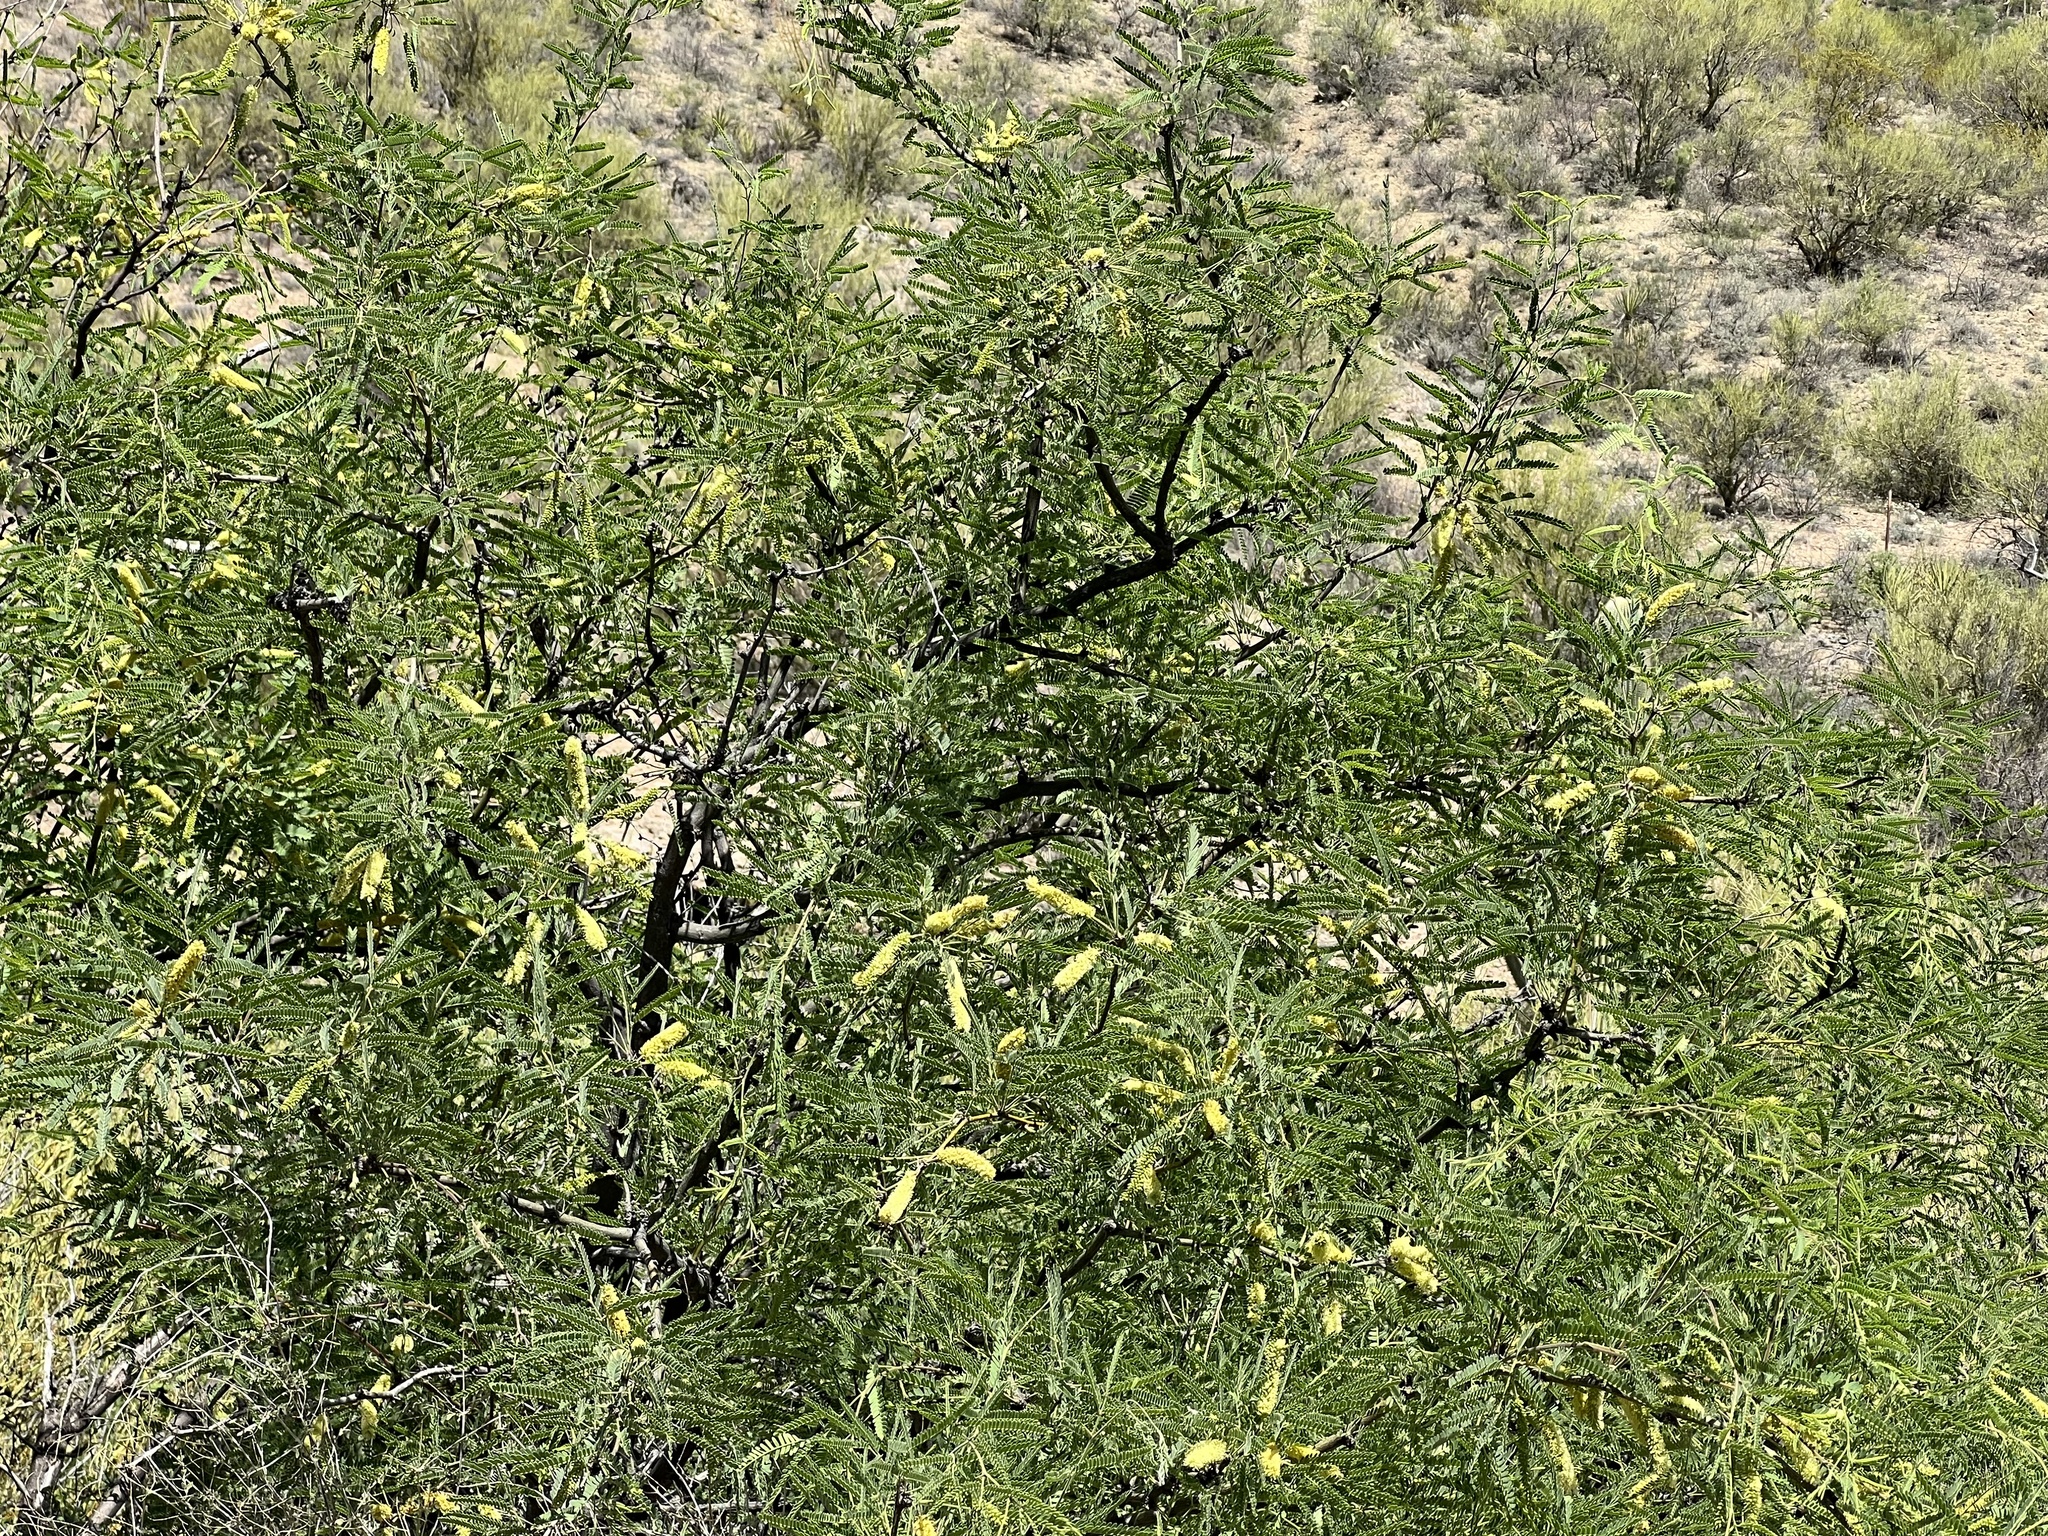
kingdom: Plantae
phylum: Tracheophyta
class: Magnoliopsida
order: Fabales
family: Fabaceae
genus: Prosopis
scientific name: Prosopis velutina
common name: Velvet mesquite
